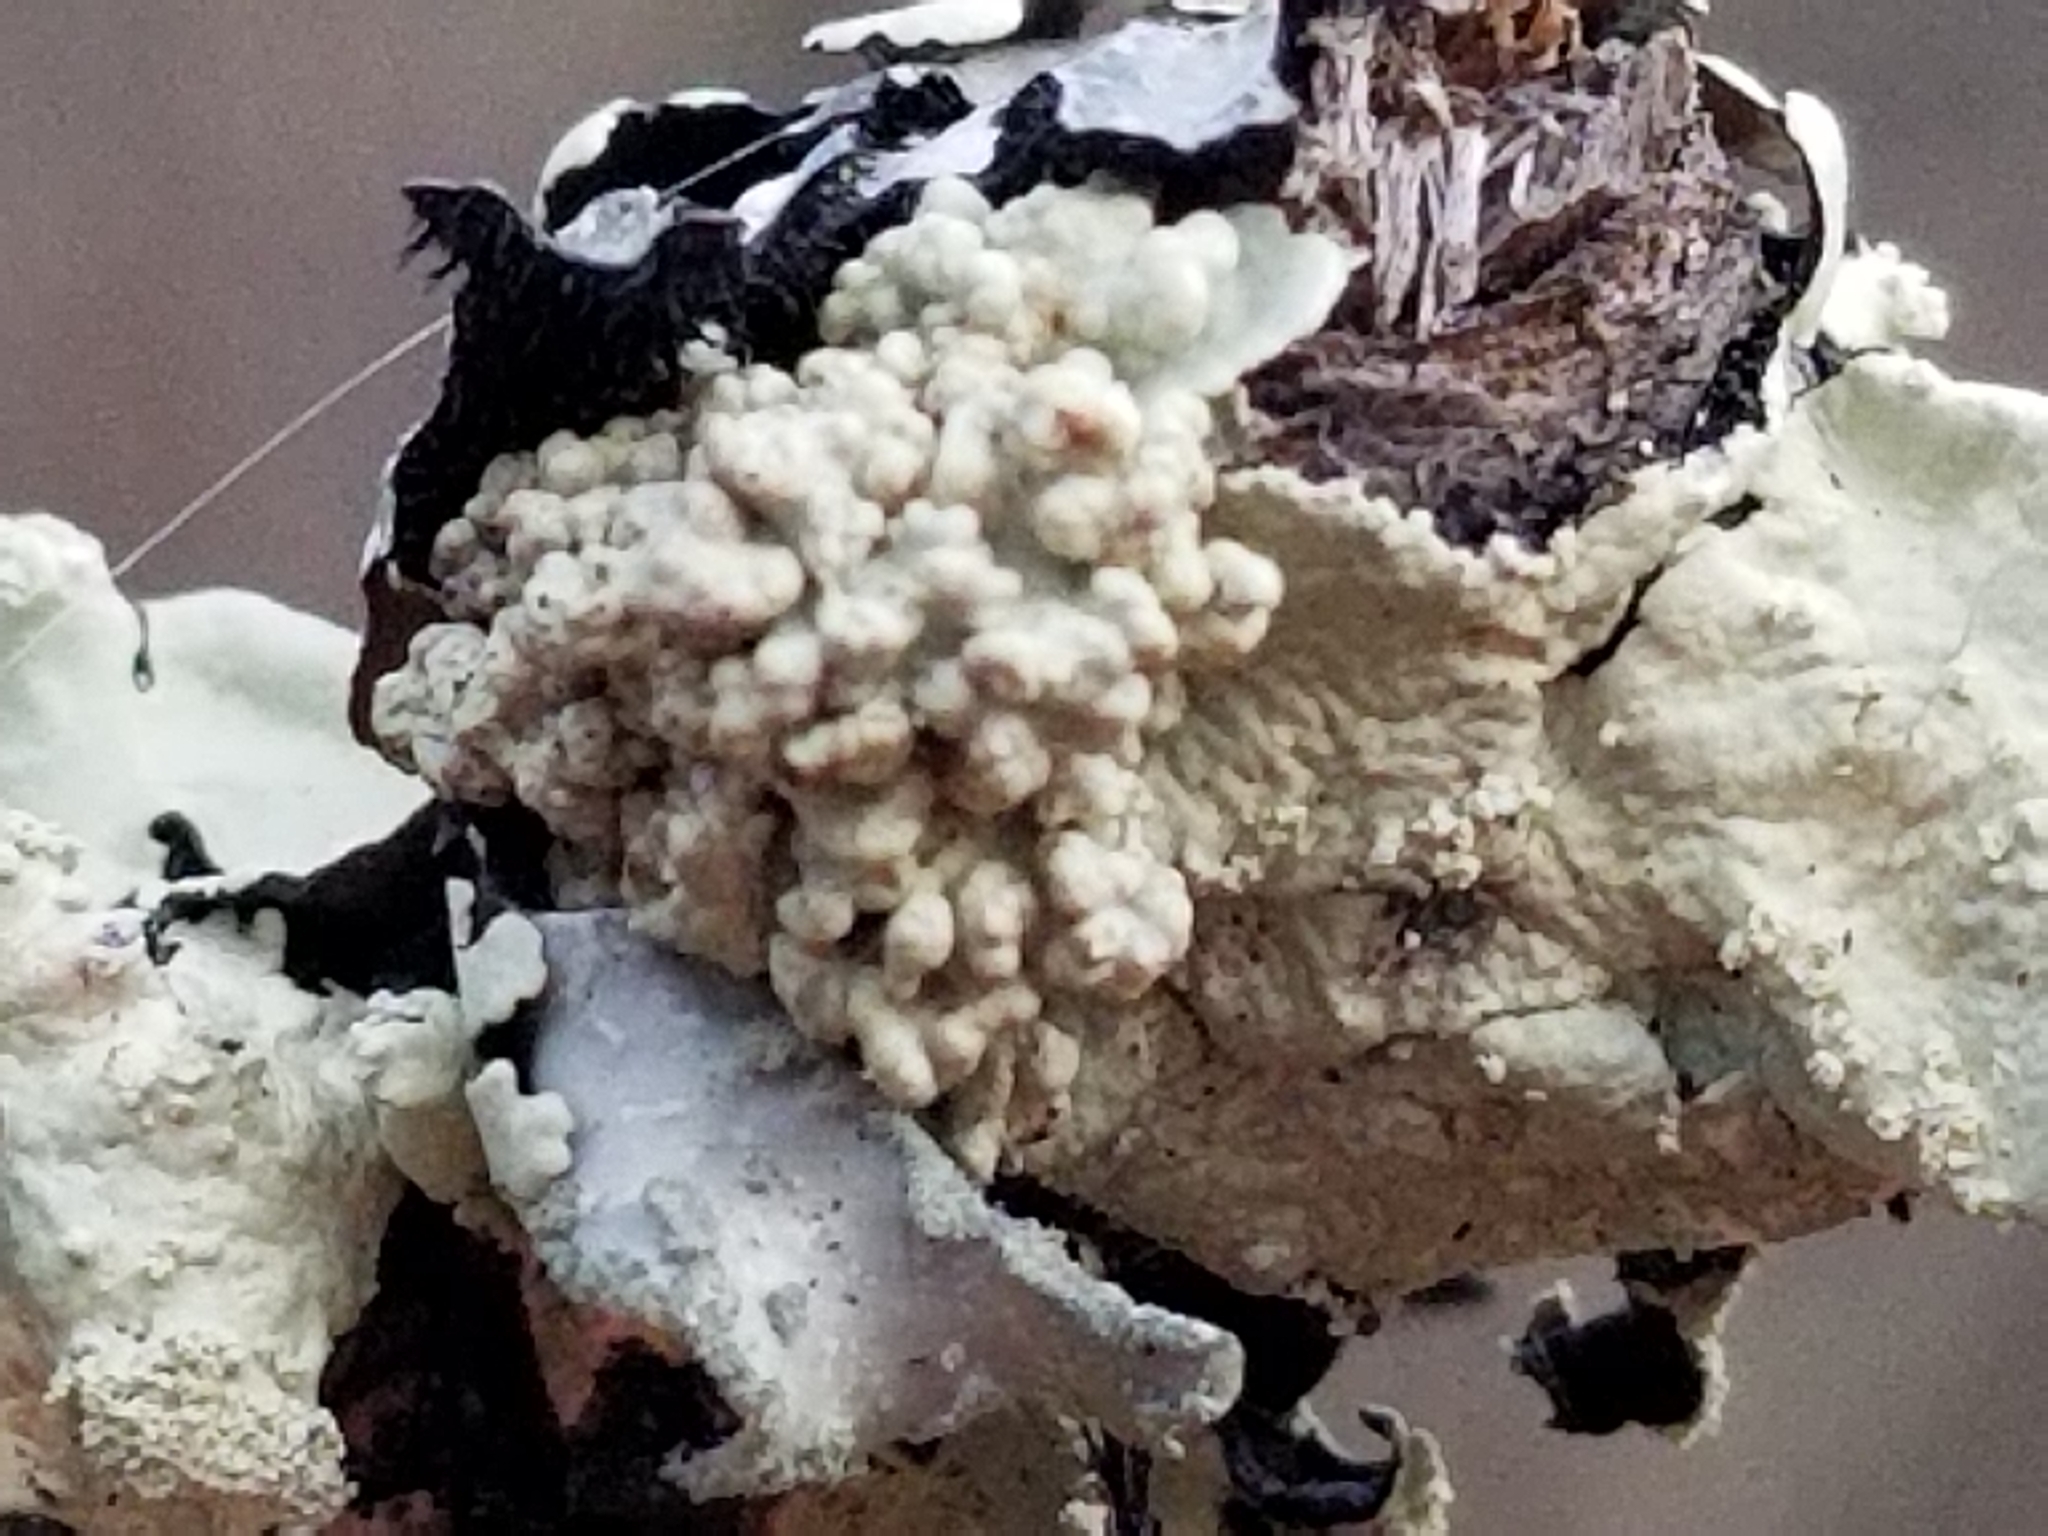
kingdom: Fungi
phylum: Ascomycota
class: Lecanoromycetes
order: Lecanorales
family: Parmeliaceae
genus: Flavoparmelia
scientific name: Flavoparmelia caperata
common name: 40-mile per hour lichen
